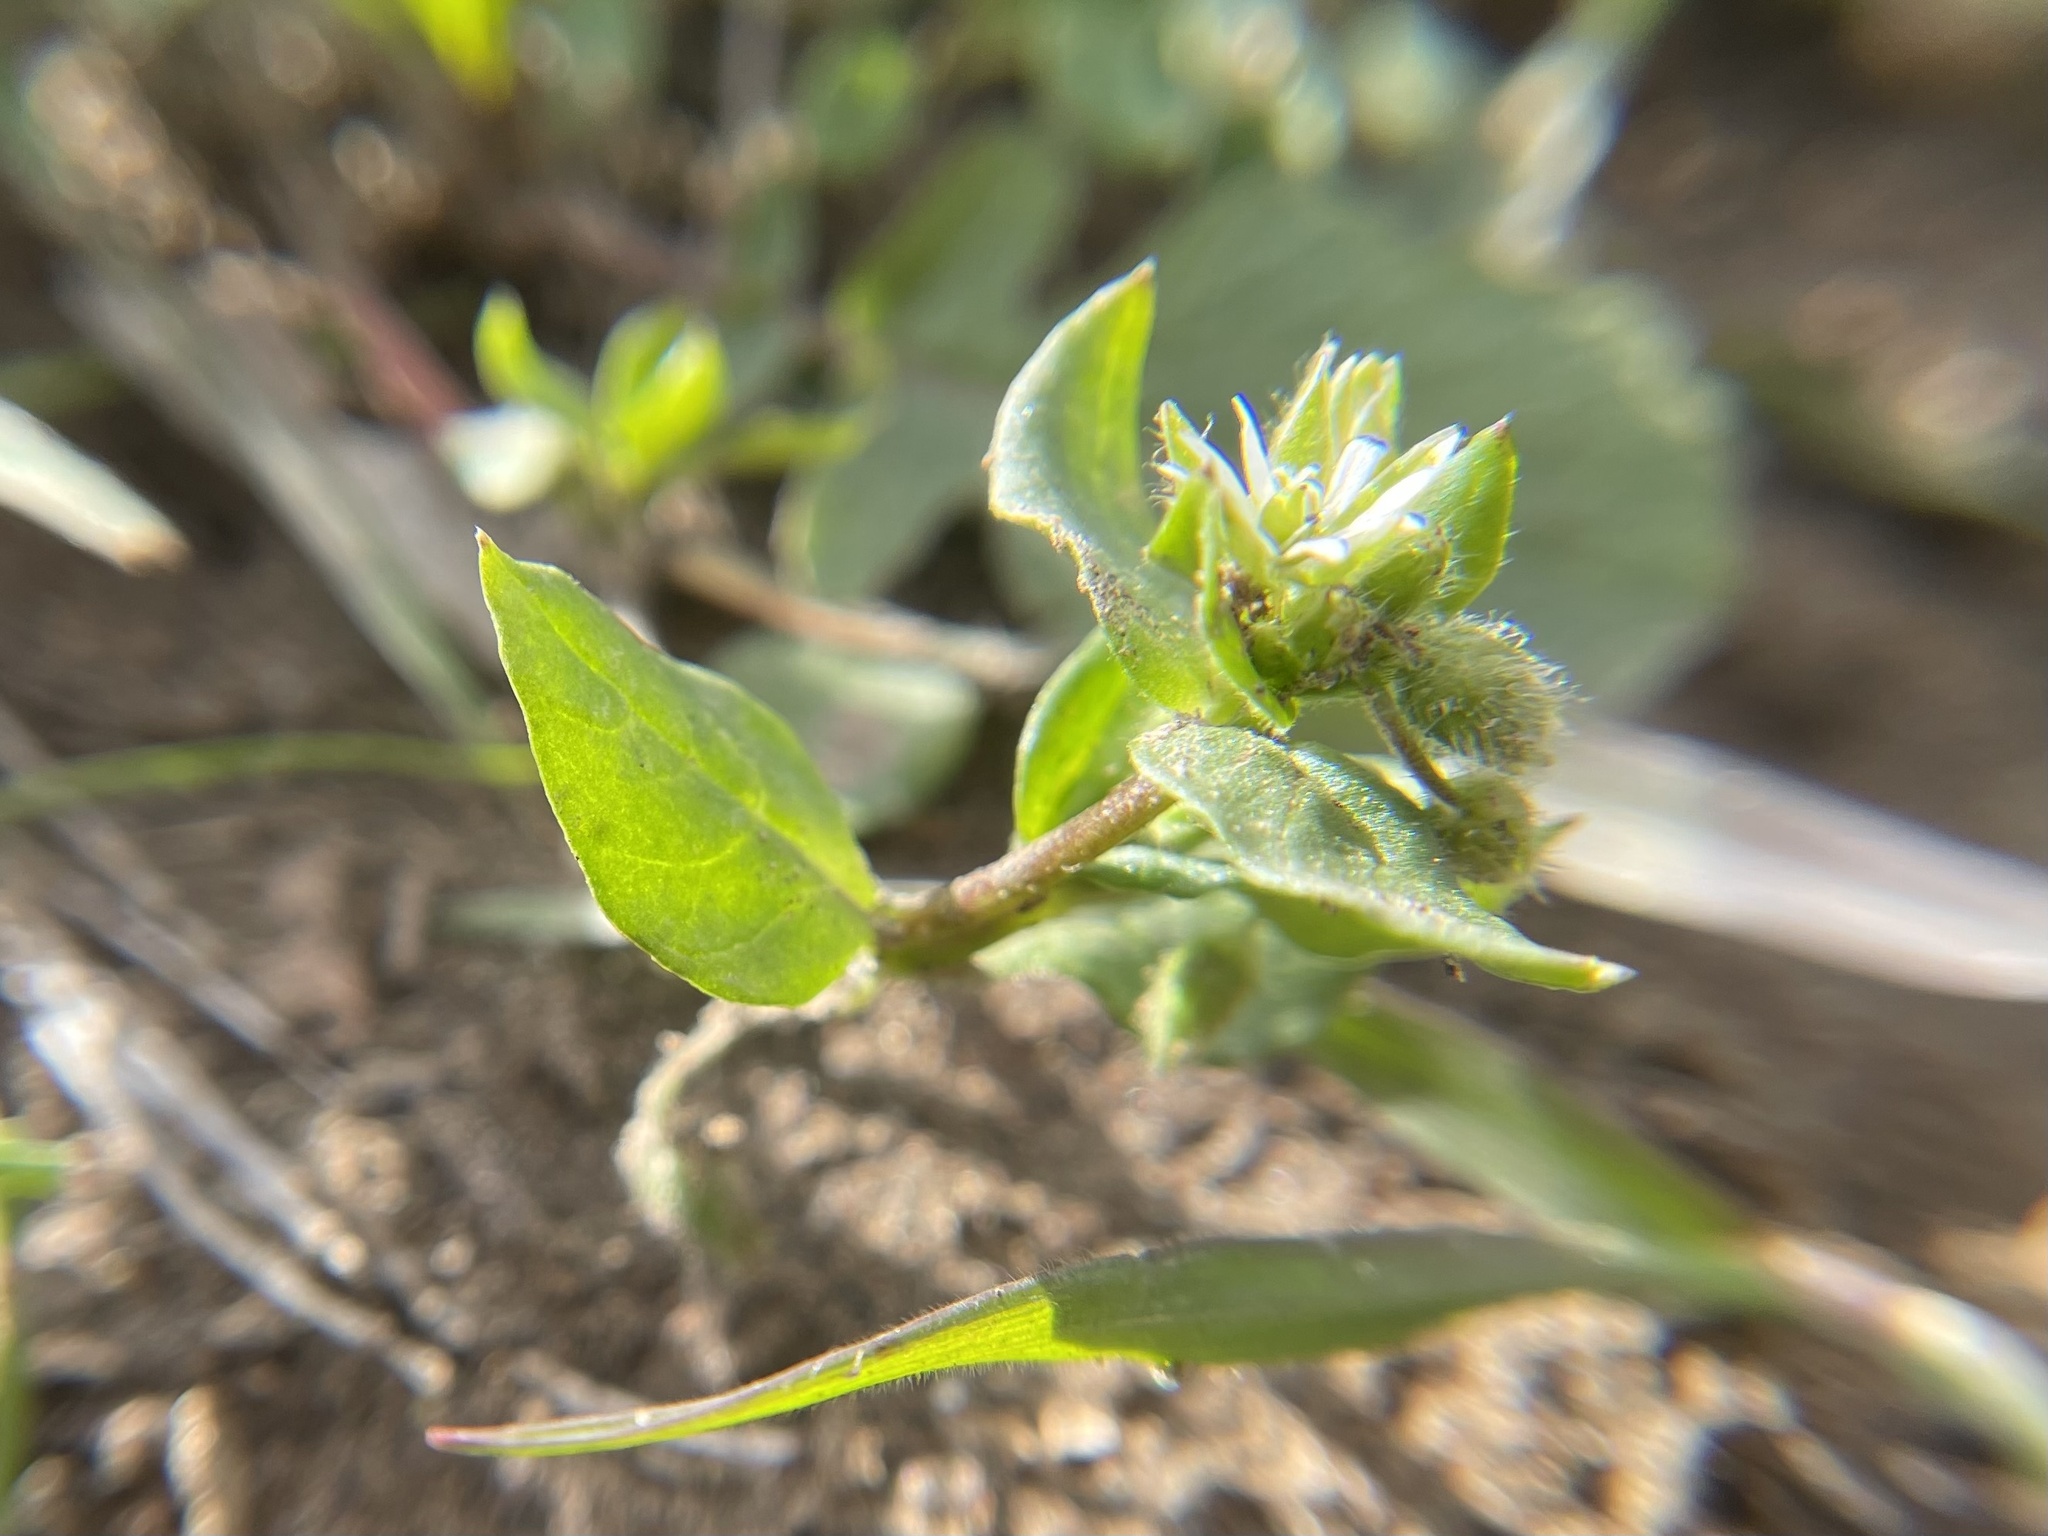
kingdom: Plantae
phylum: Tracheophyta
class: Magnoliopsida
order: Caryophyllales
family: Caryophyllaceae
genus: Stellaria
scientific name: Stellaria media
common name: Common chickweed
